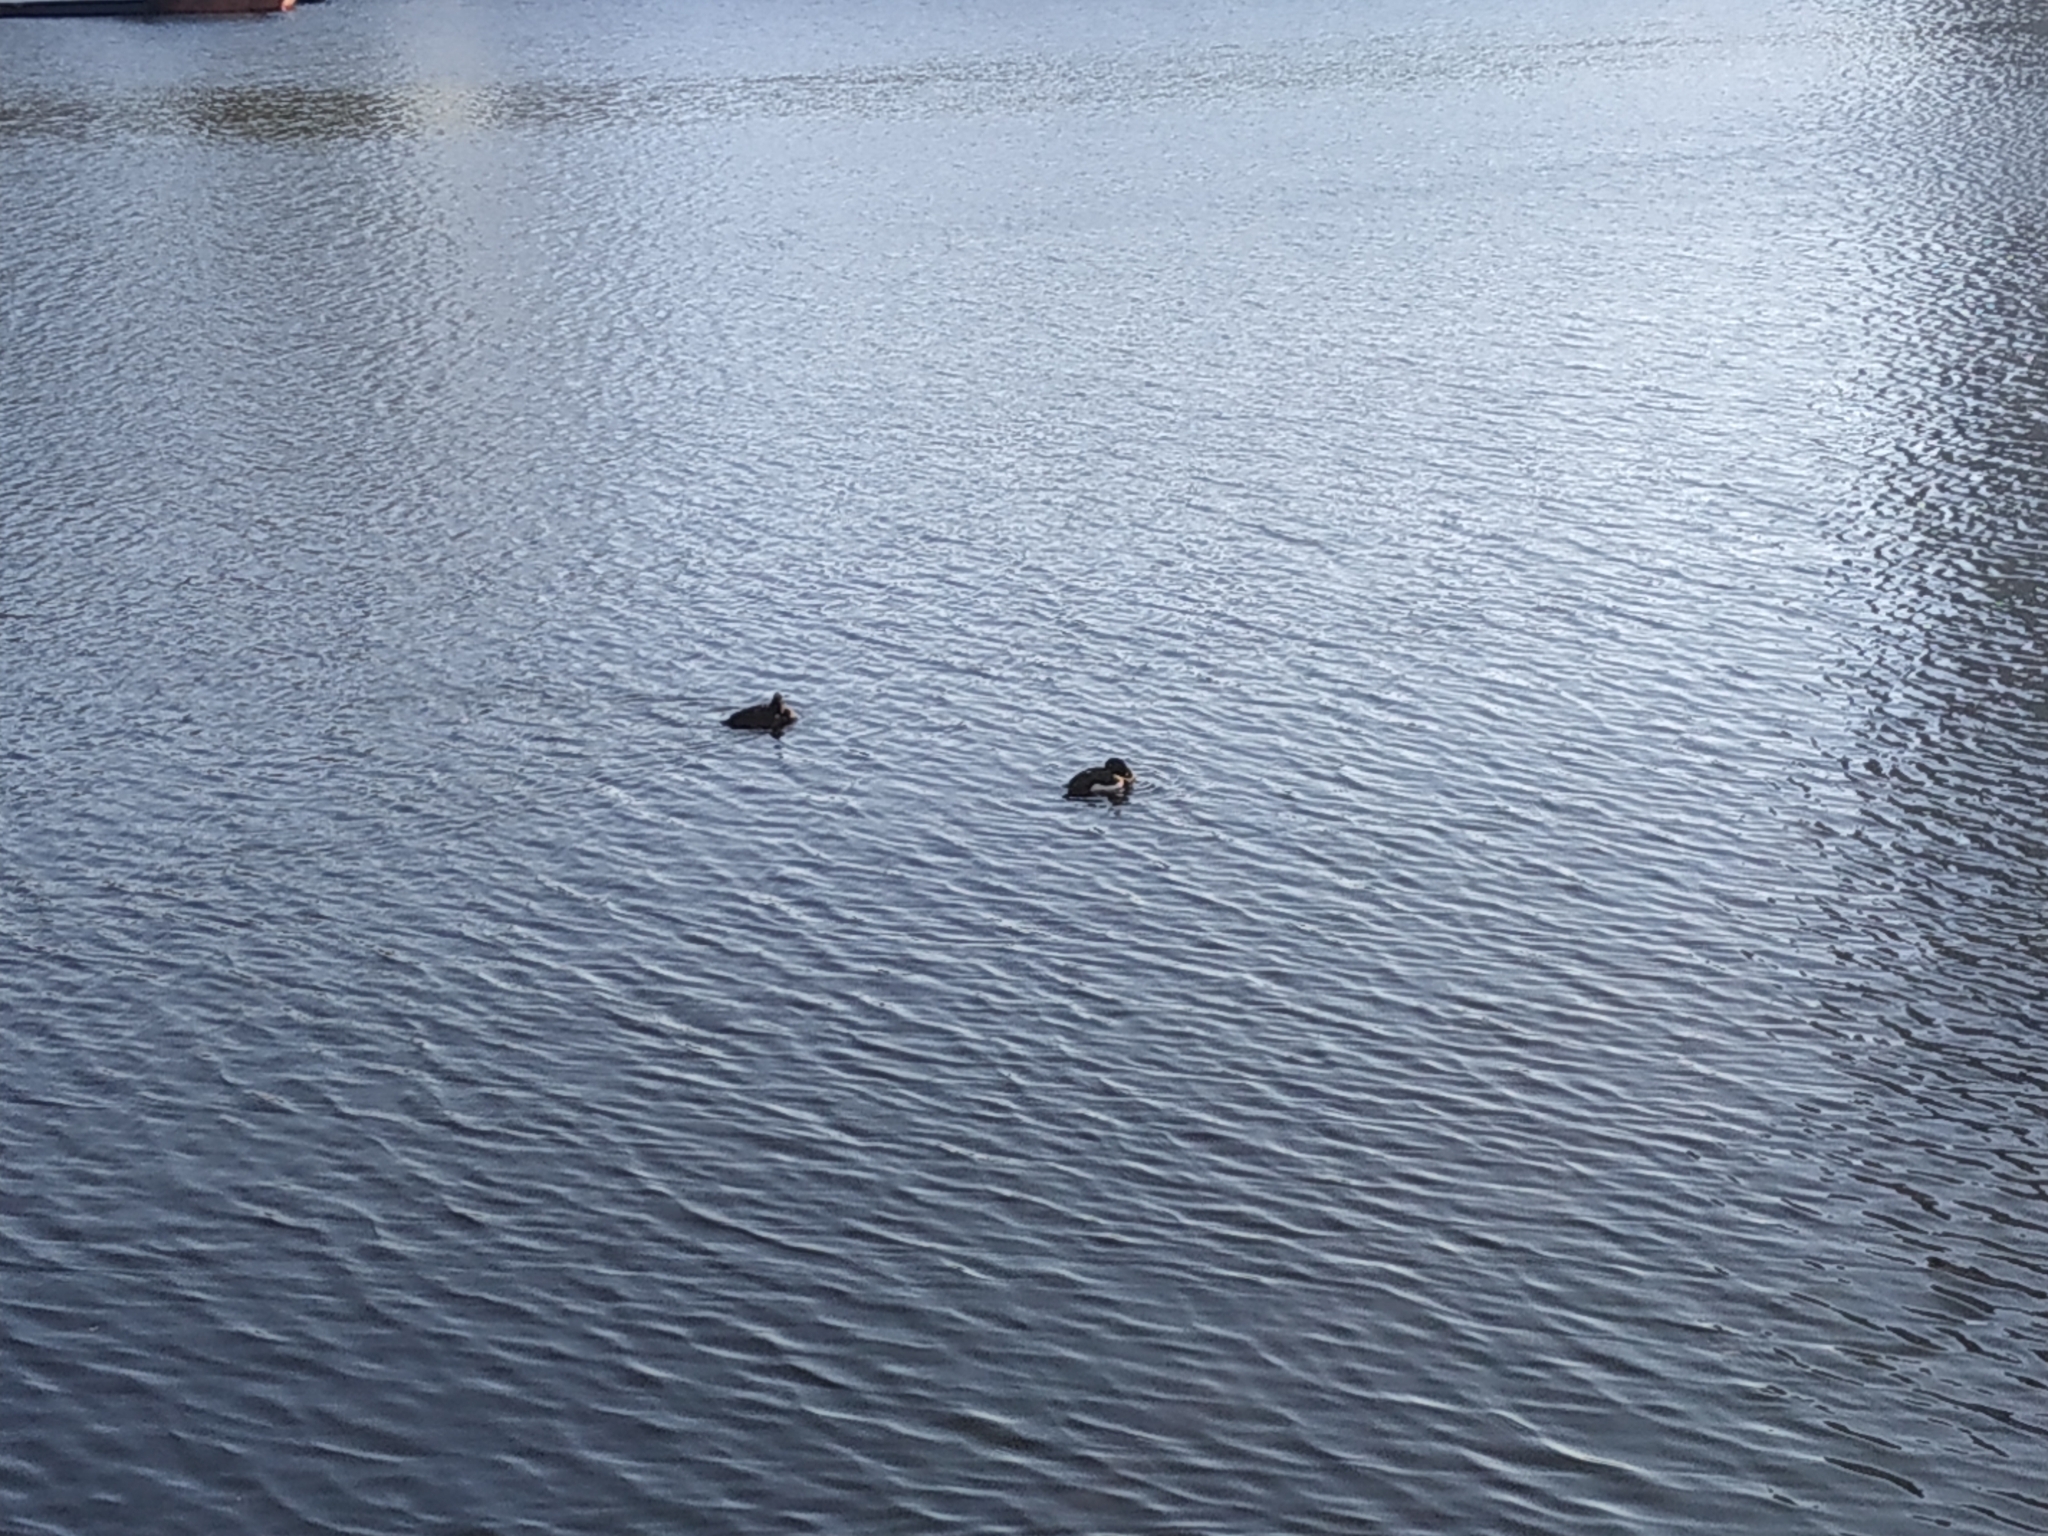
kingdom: Animalia
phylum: Chordata
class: Aves
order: Anseriformes
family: Anatidae
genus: Aythya
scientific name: Aythya fuligula
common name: Tufted duck
